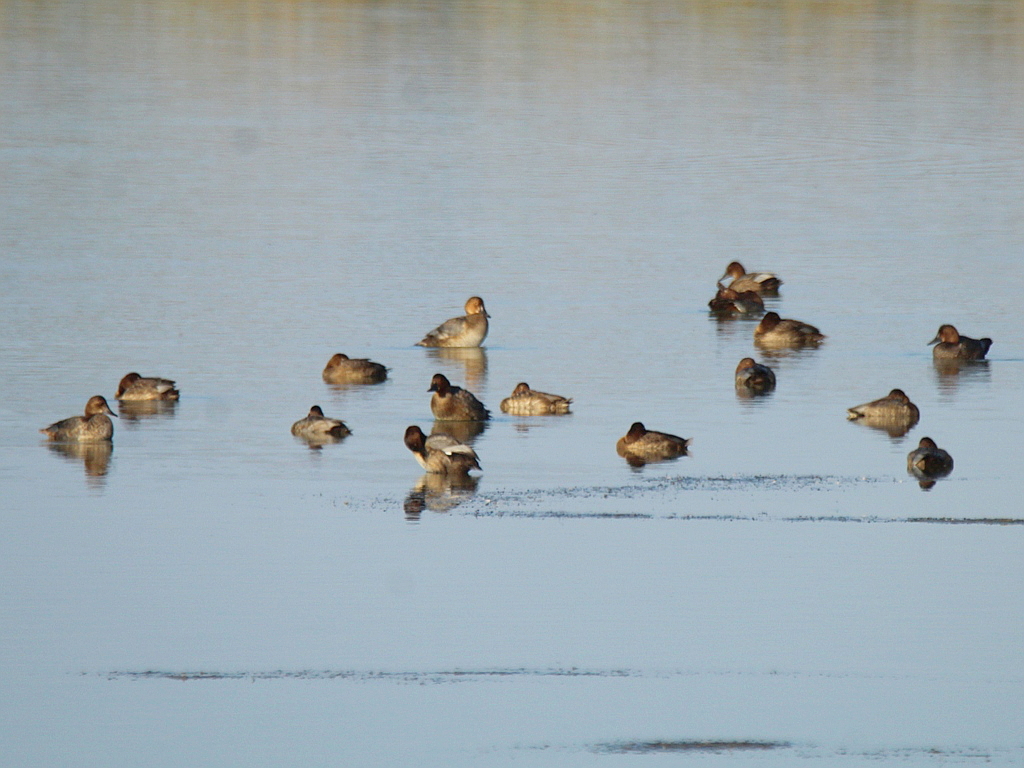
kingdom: Animalia
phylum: Chordata
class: Aves
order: Anseriformes
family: Anatidae
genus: Aythya
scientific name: Aythya ferina
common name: Common pochard
